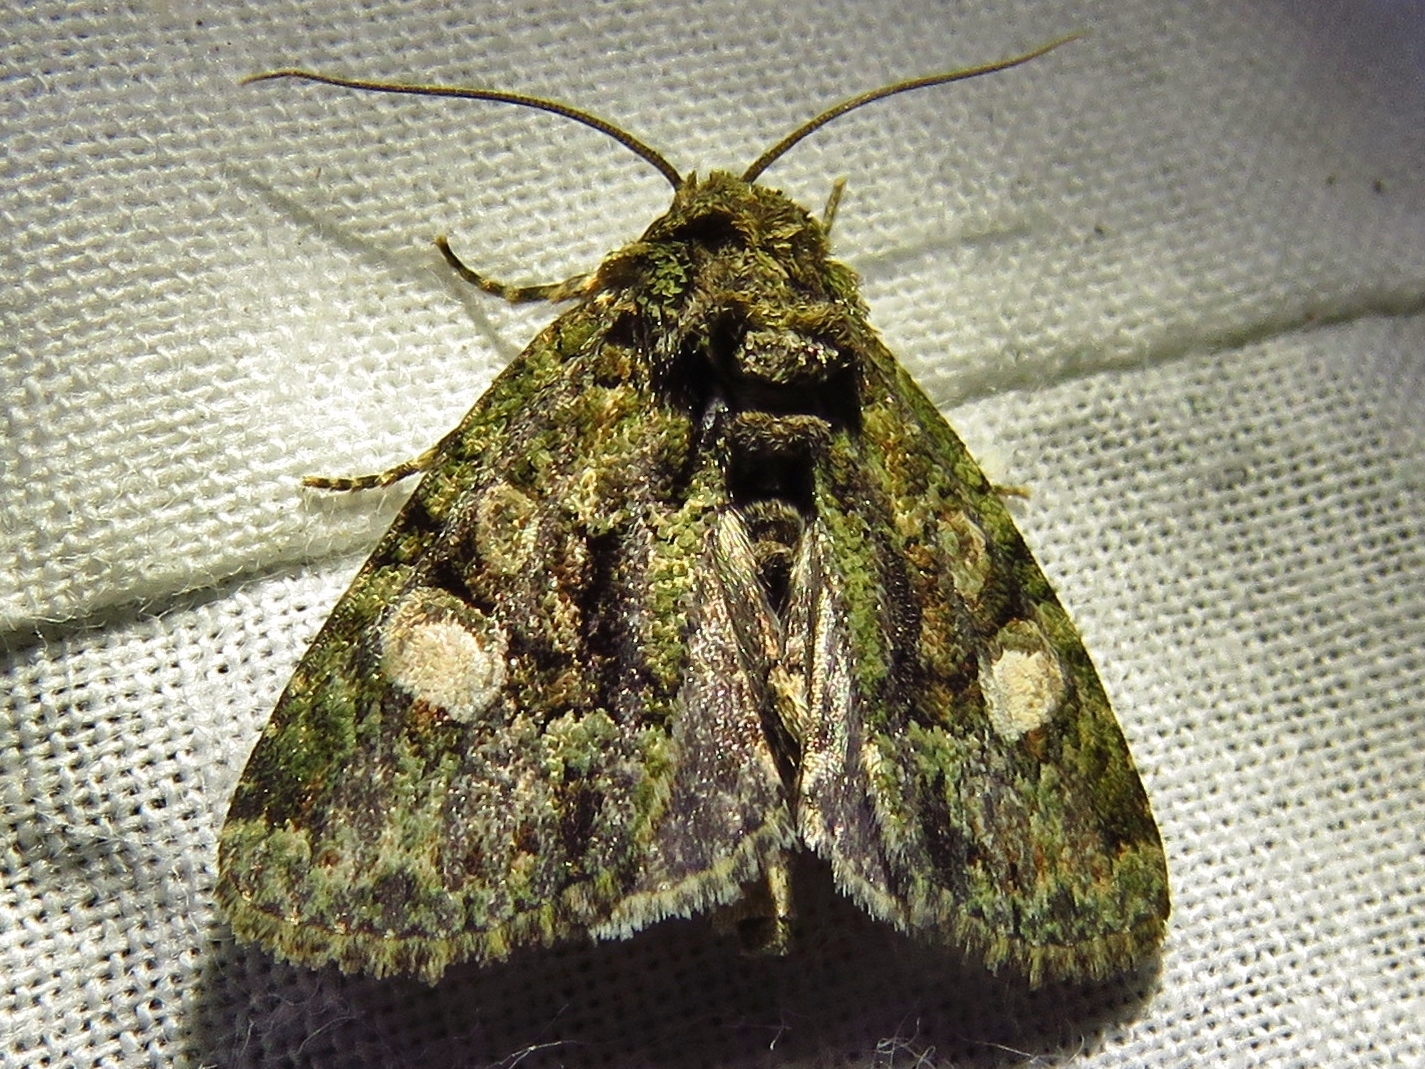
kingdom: Animalia
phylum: Arthropoda
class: Insecta
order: Lepidoptera
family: Noctuidae
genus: Phosphila
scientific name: Phosphila miselioides
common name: Spotted phosphila moth
